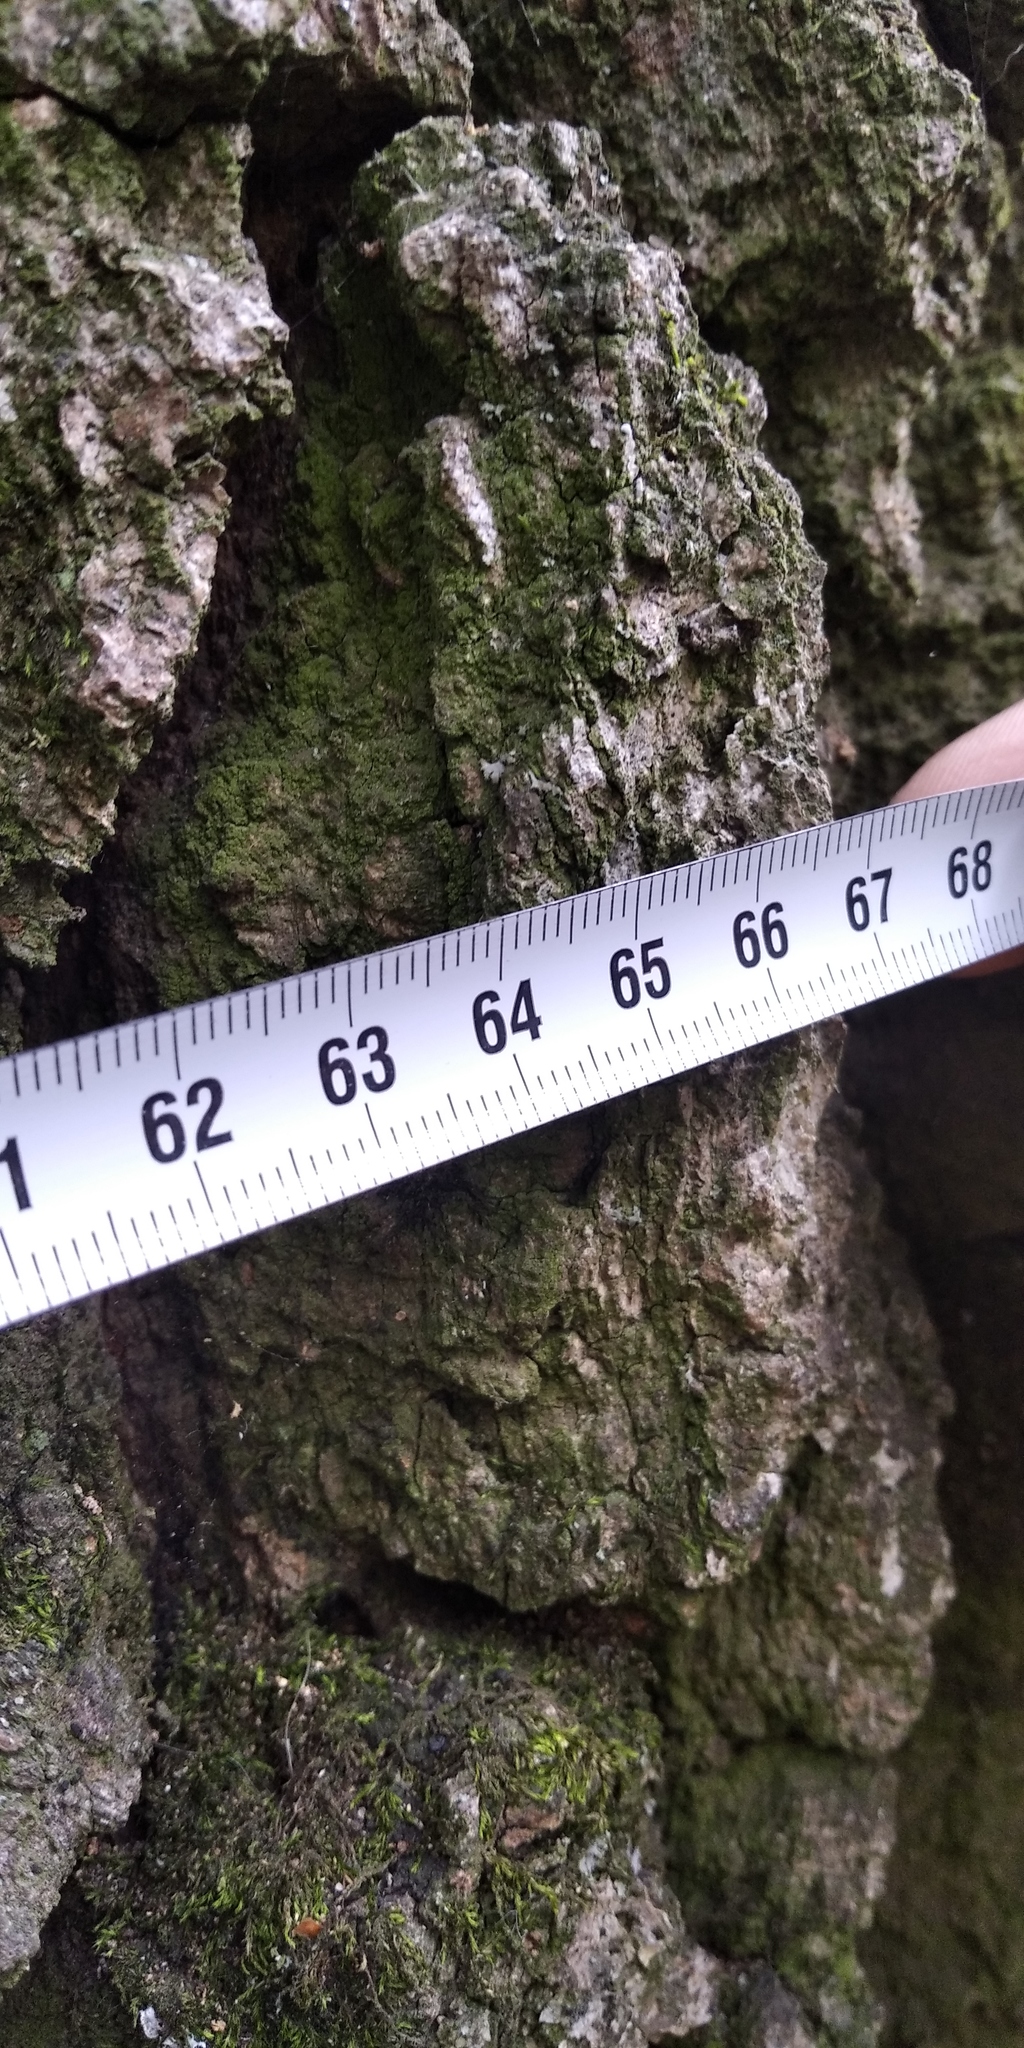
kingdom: Plantae
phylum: Tracheophyta
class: Magnoliopsida
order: Fagales
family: Fagaceae
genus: Quercus
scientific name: Quercus robur
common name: Pedunculate oak
